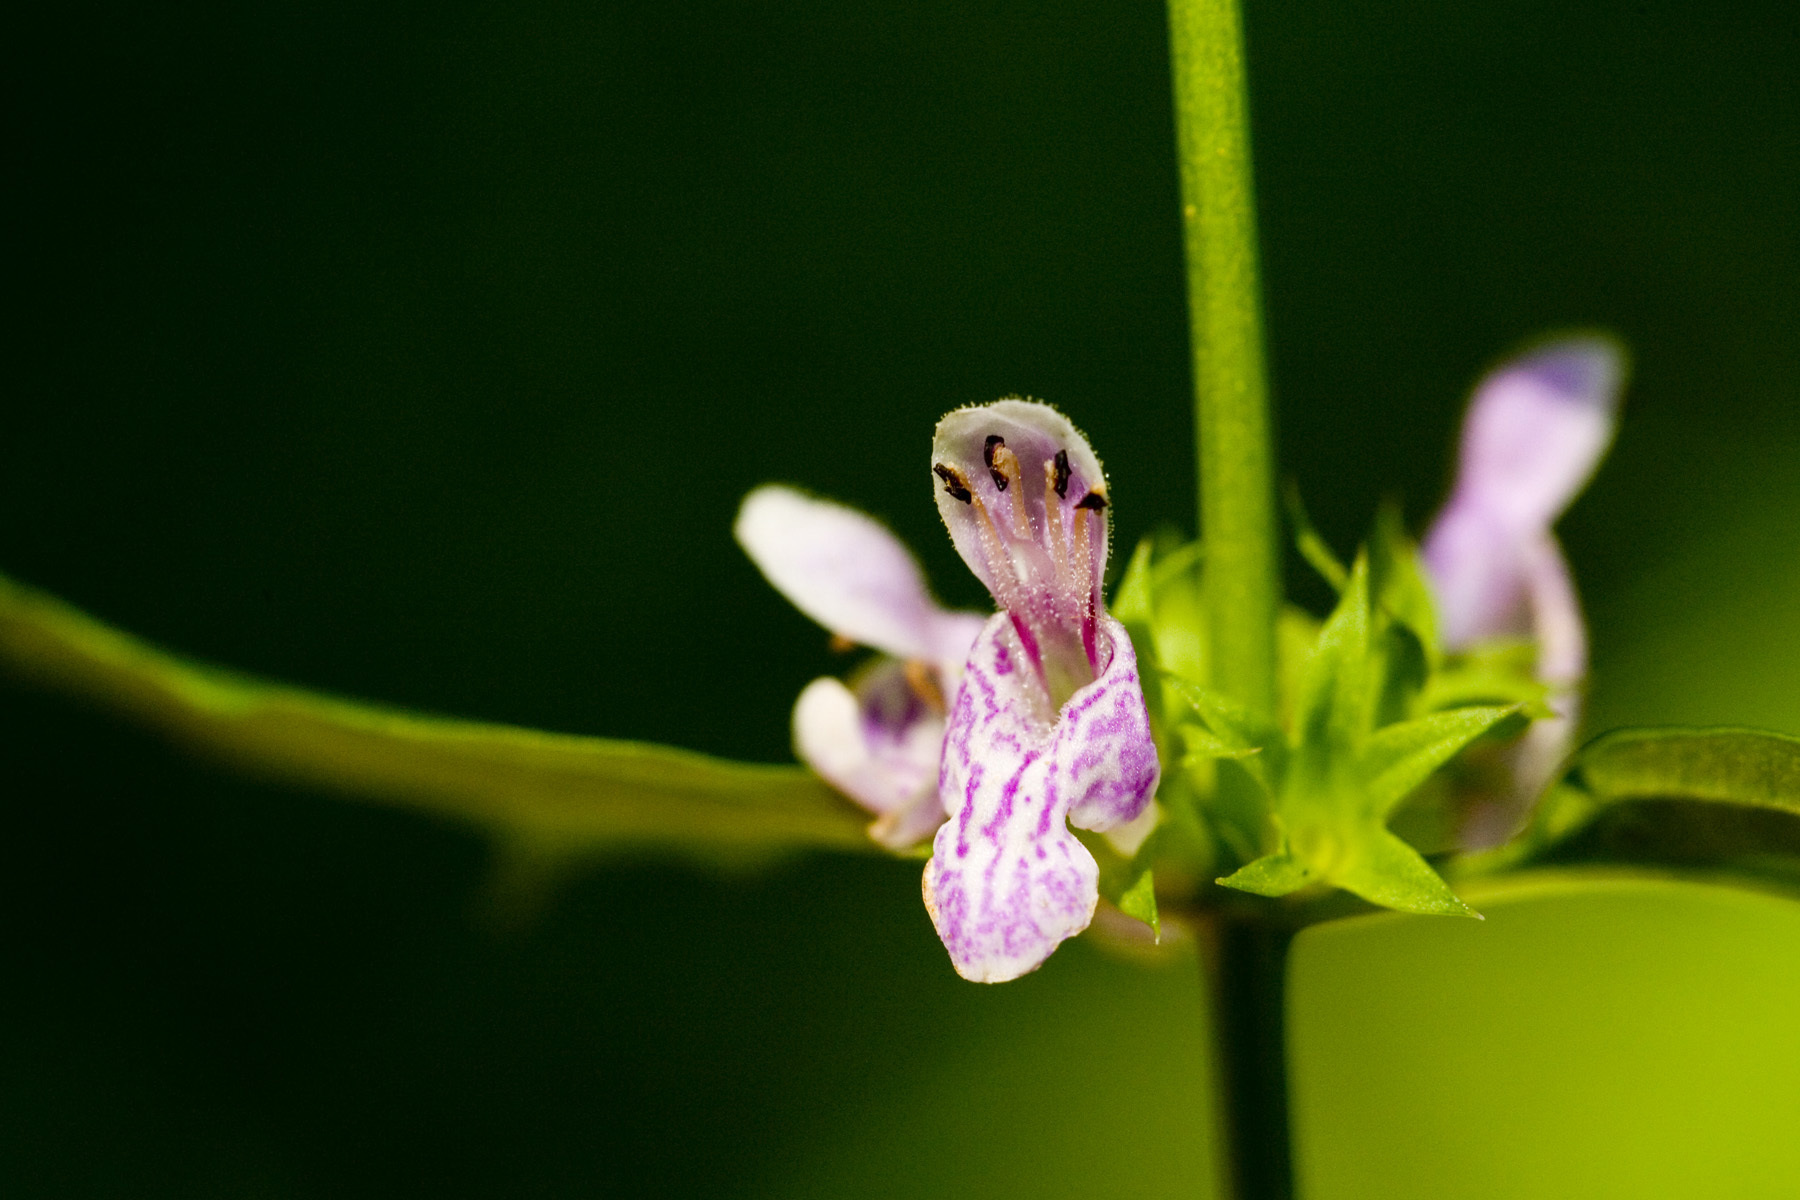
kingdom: Plantae
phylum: Tracheophyta
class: Magnoliopsida
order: Lamiales
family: Lamiaceae
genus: Stachys
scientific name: Stachys tenuifolia
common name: Smooth hedge-nettle
